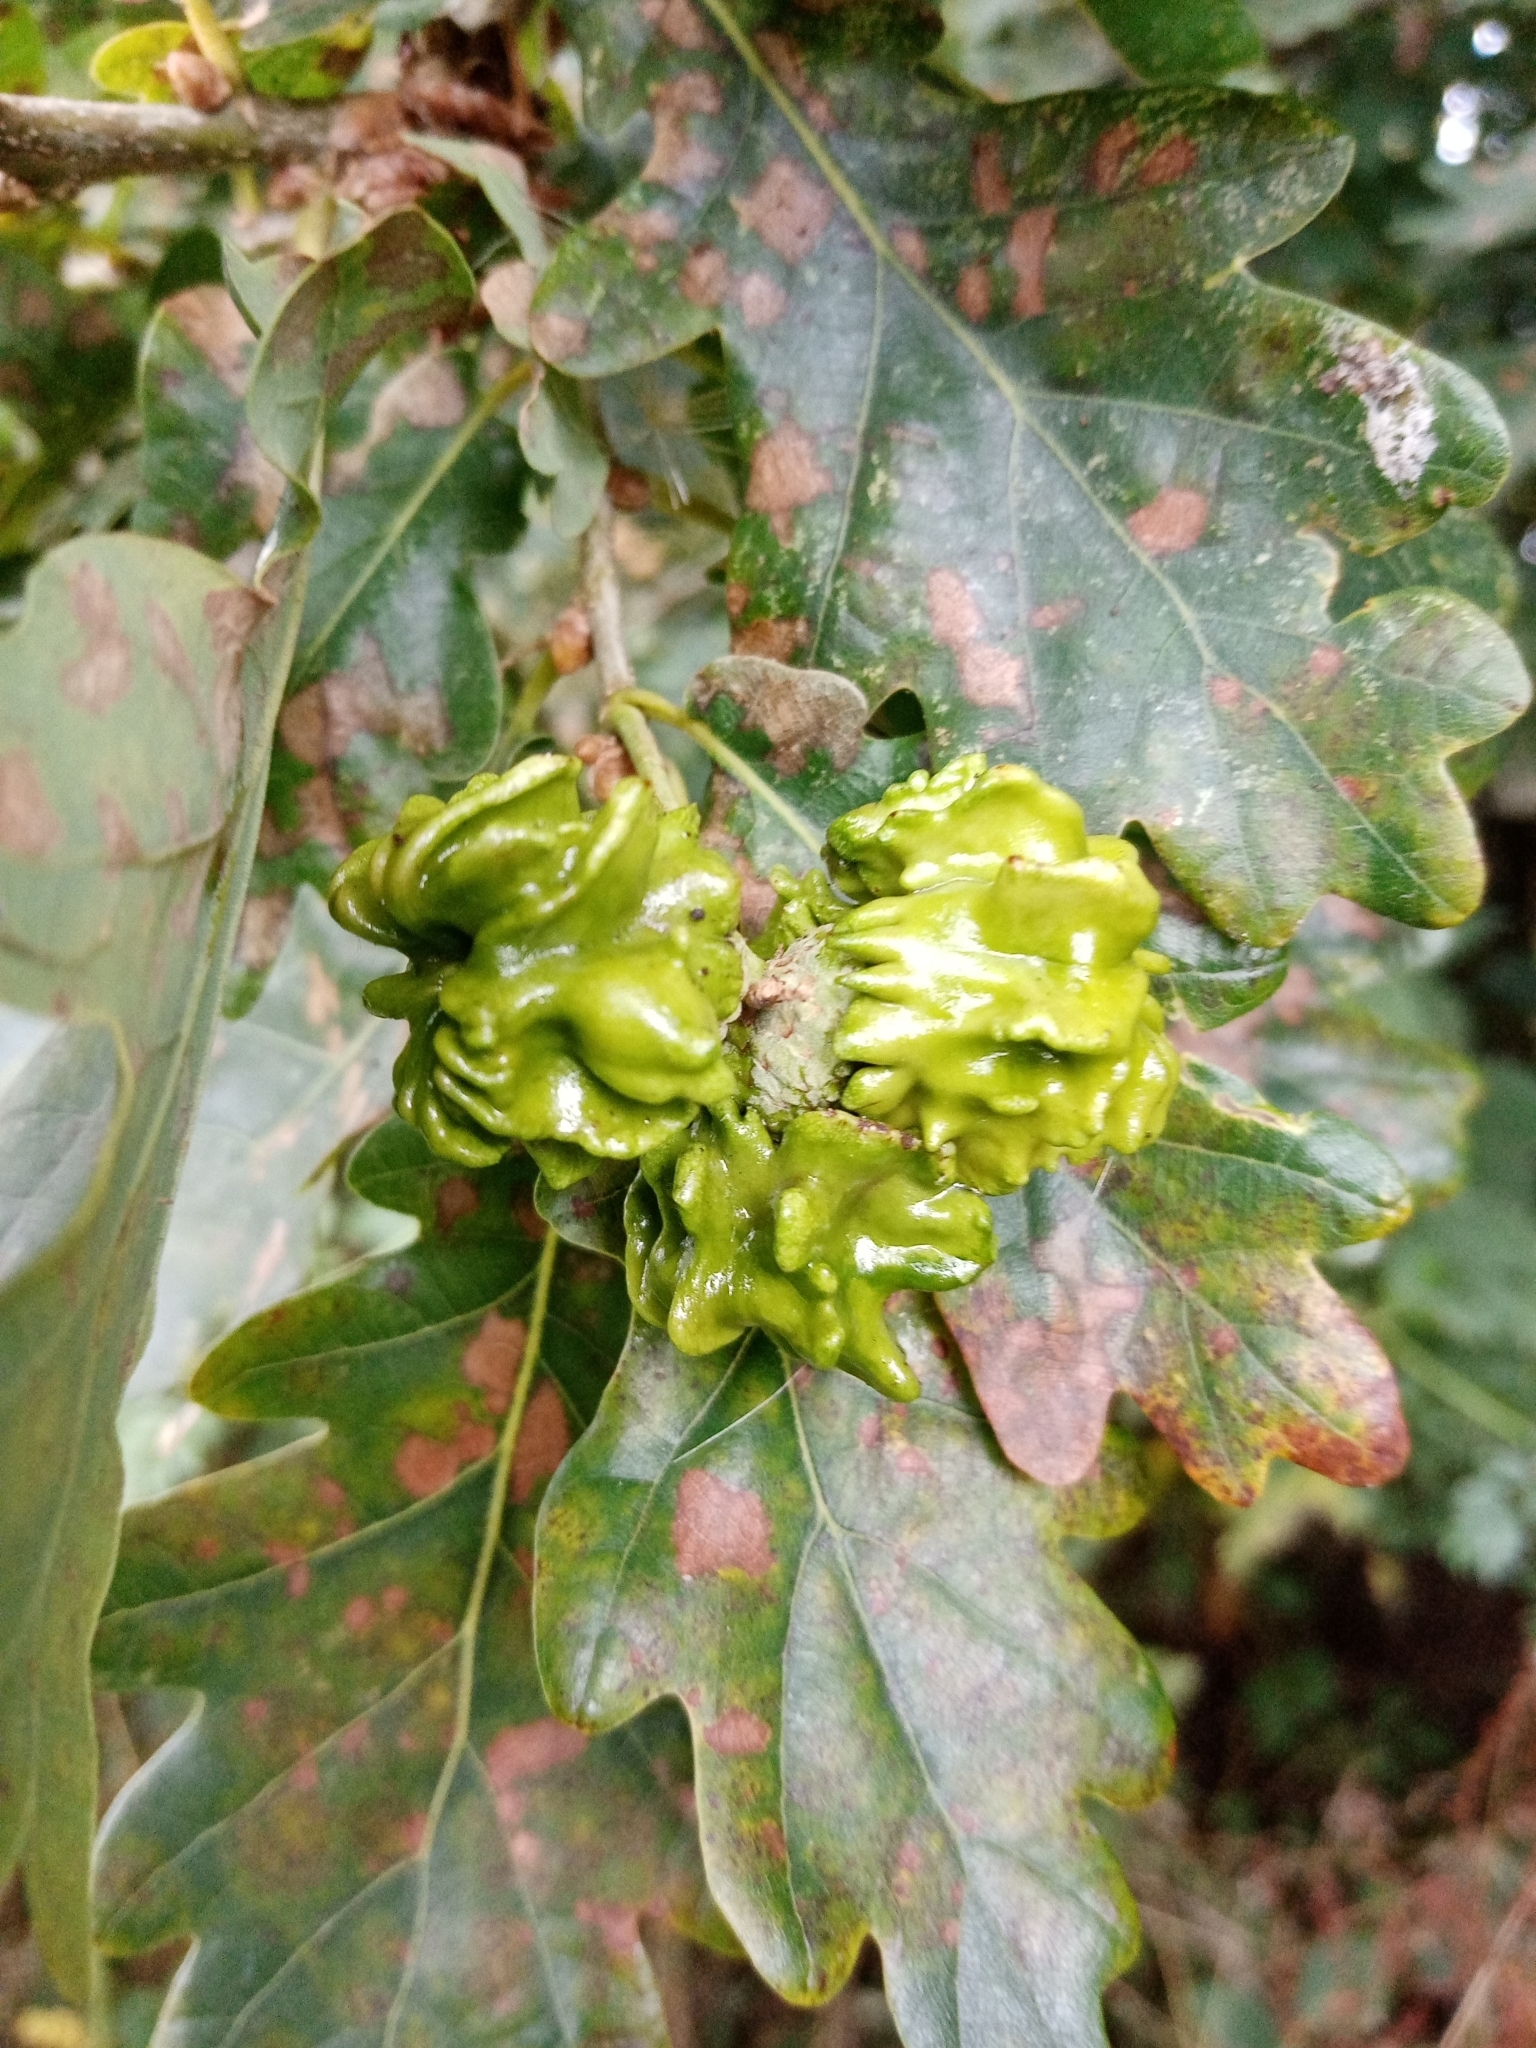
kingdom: Animalia
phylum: Arthropoda
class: Insecta
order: Hymenoptera
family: Cynipidae
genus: Andricus
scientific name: Andricus quercuscalicis
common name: Knopper gall
